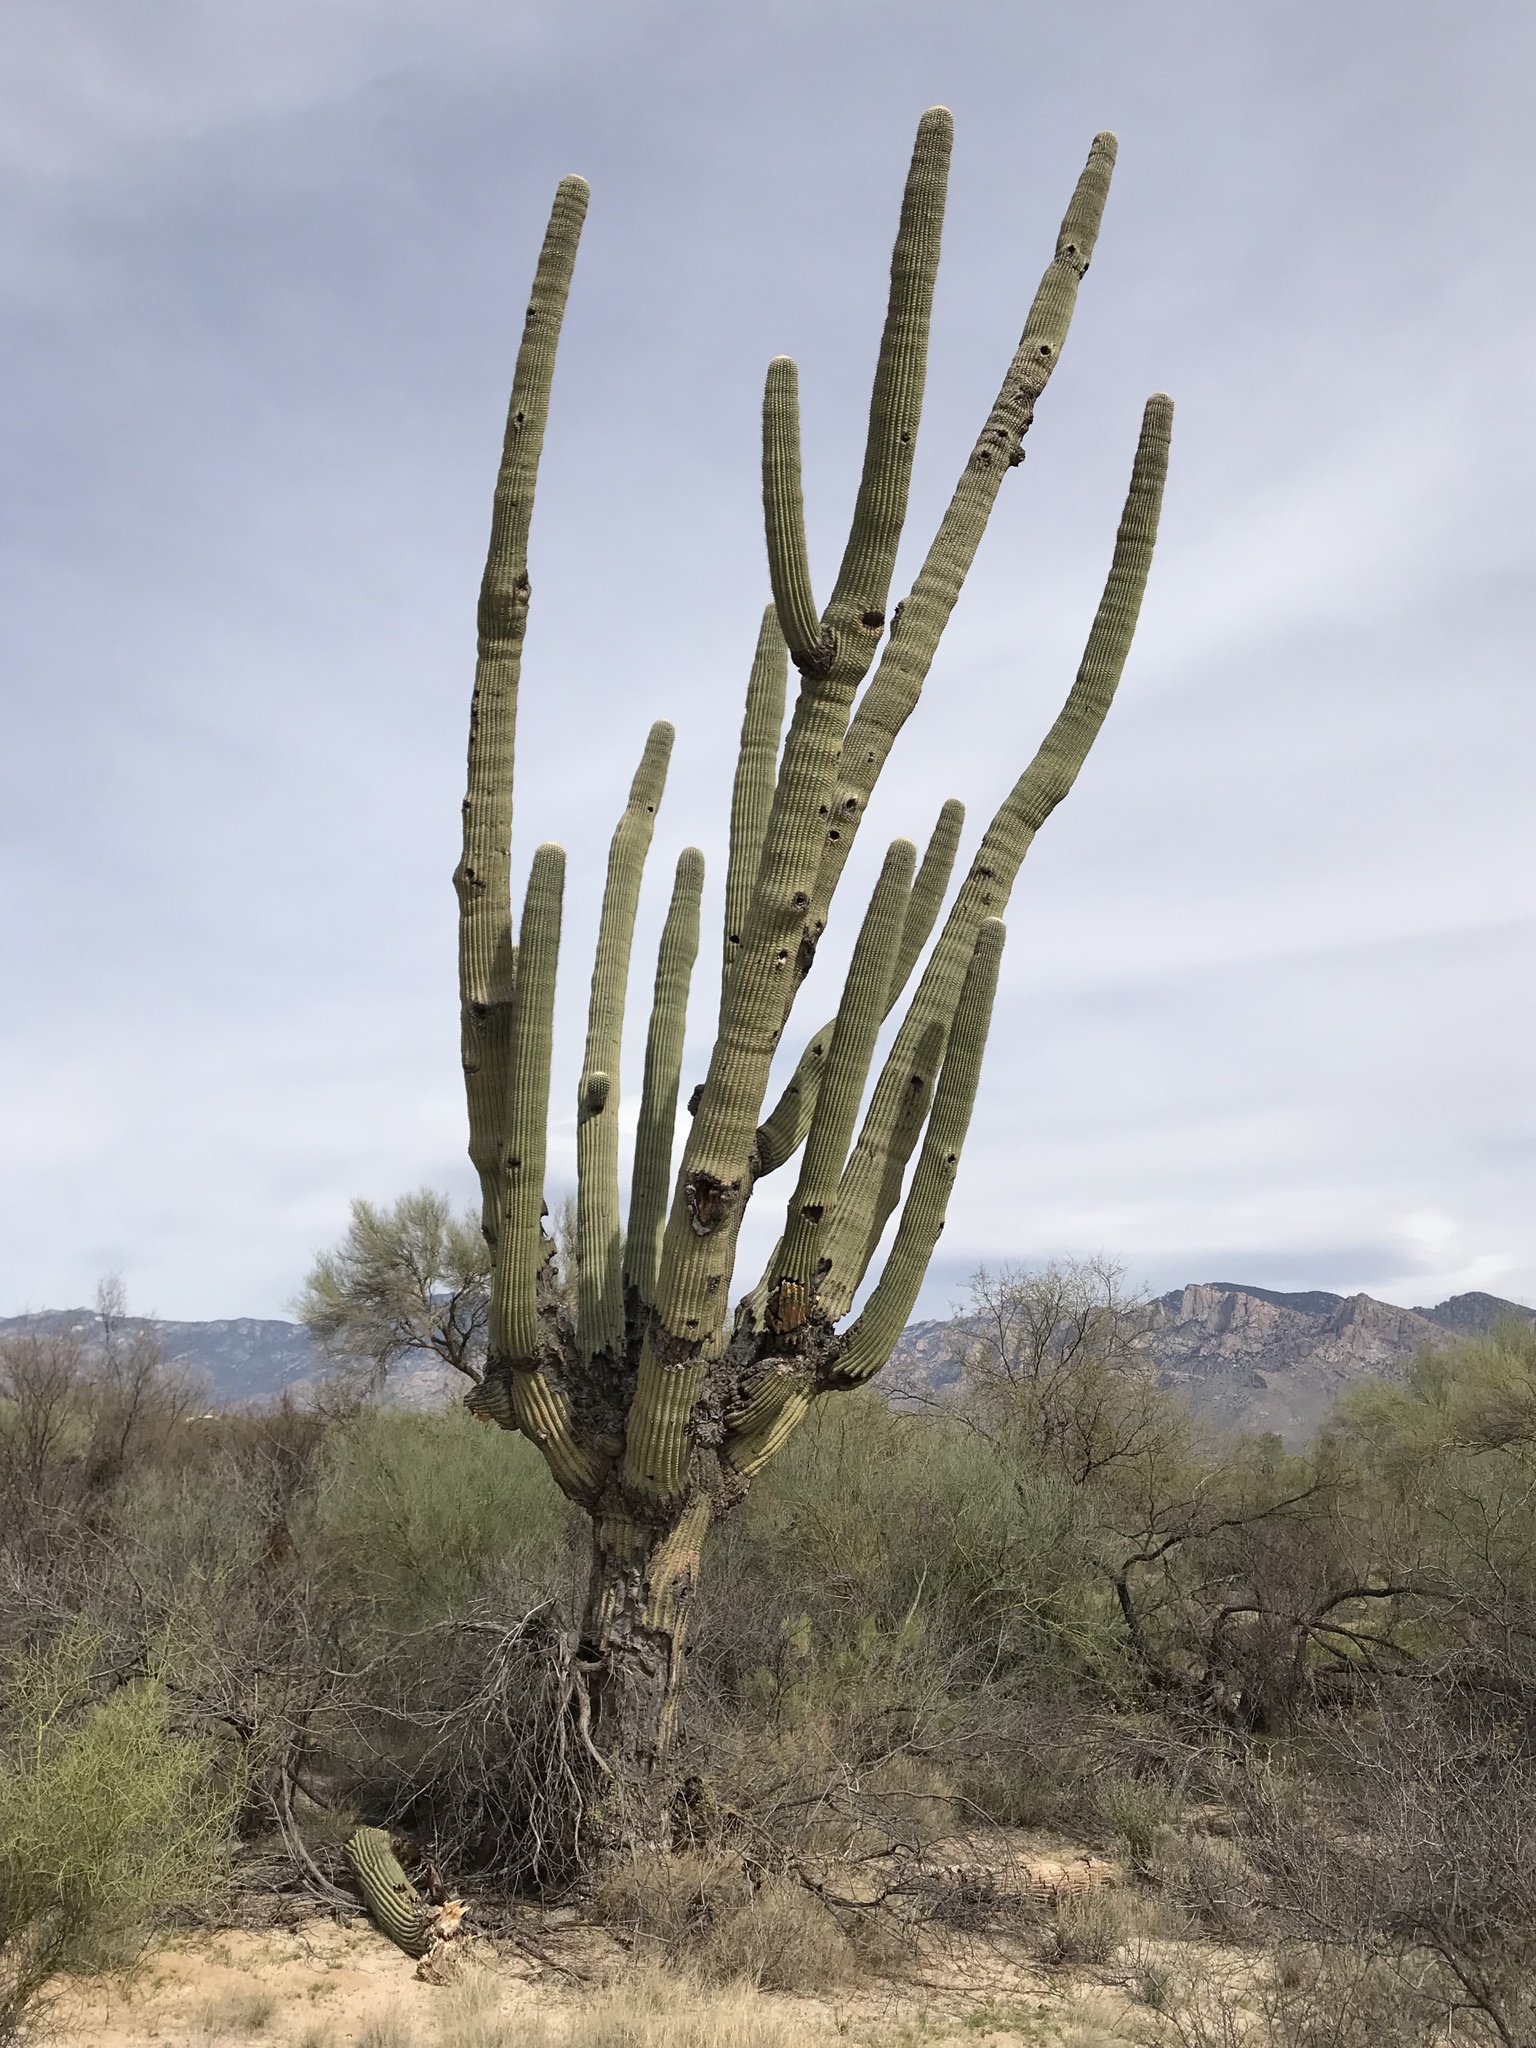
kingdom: Plantae
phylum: Tracheophyta
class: Magnoliopsida
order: Caryophyllales
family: Cactaceae
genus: Carnegiea
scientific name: Carnegiea gigantea
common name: Saguaro
